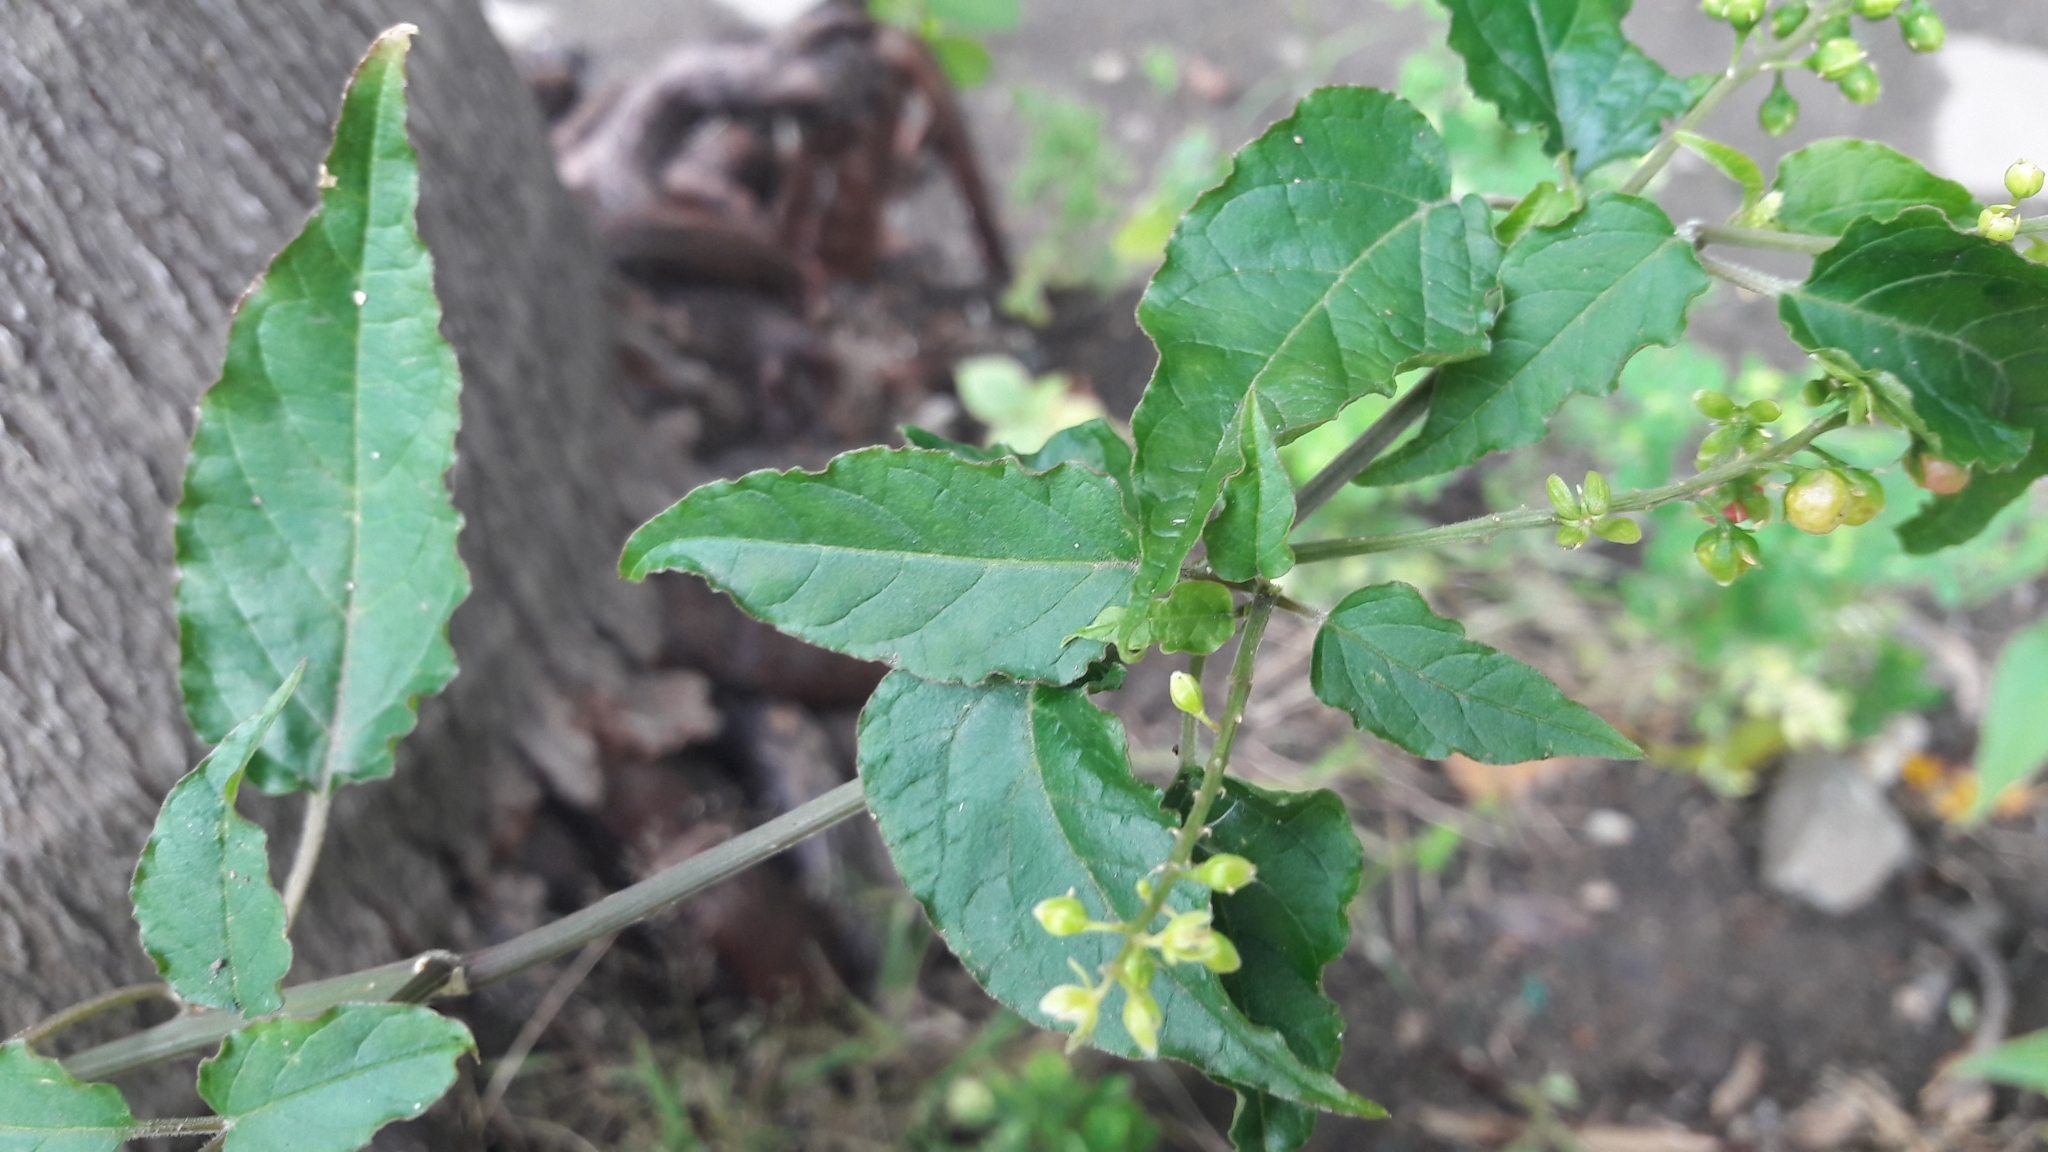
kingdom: Plantae
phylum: Tracheophyta
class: Magnoliopsida
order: Caryophyllales
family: Phytolaccaceae
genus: Rivina
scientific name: Rivina humilis
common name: Rougeplant
